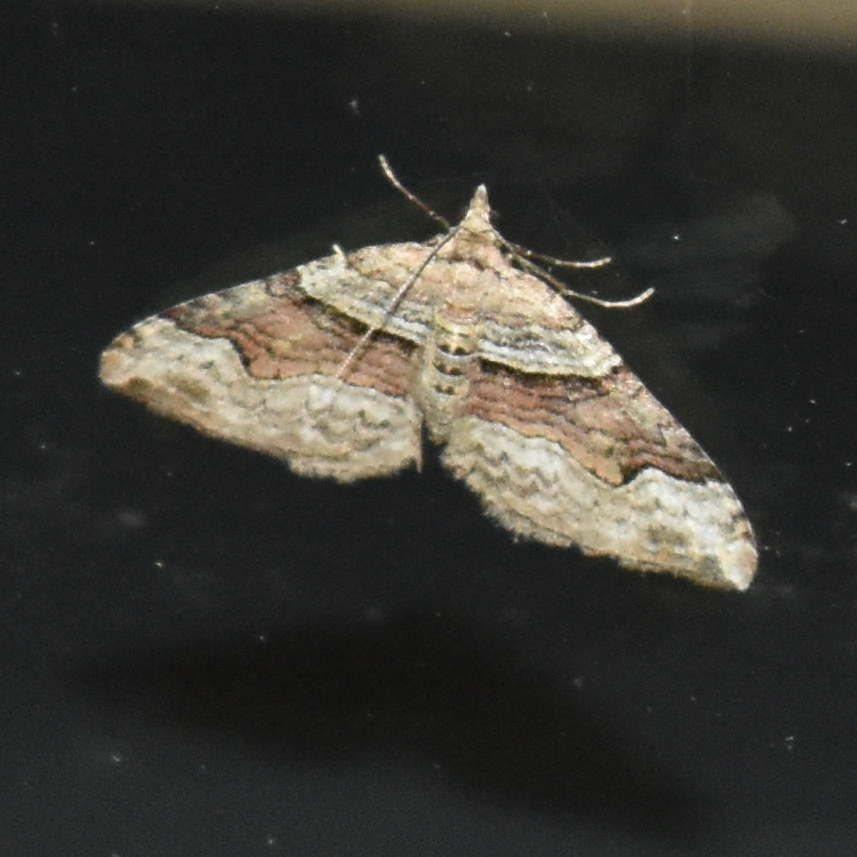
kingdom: Animalia
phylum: Arthropoda
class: Insecta
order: Lepidoptera
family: Geometridae
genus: Xanthorhoe
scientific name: Xanthorhoe defensaria
